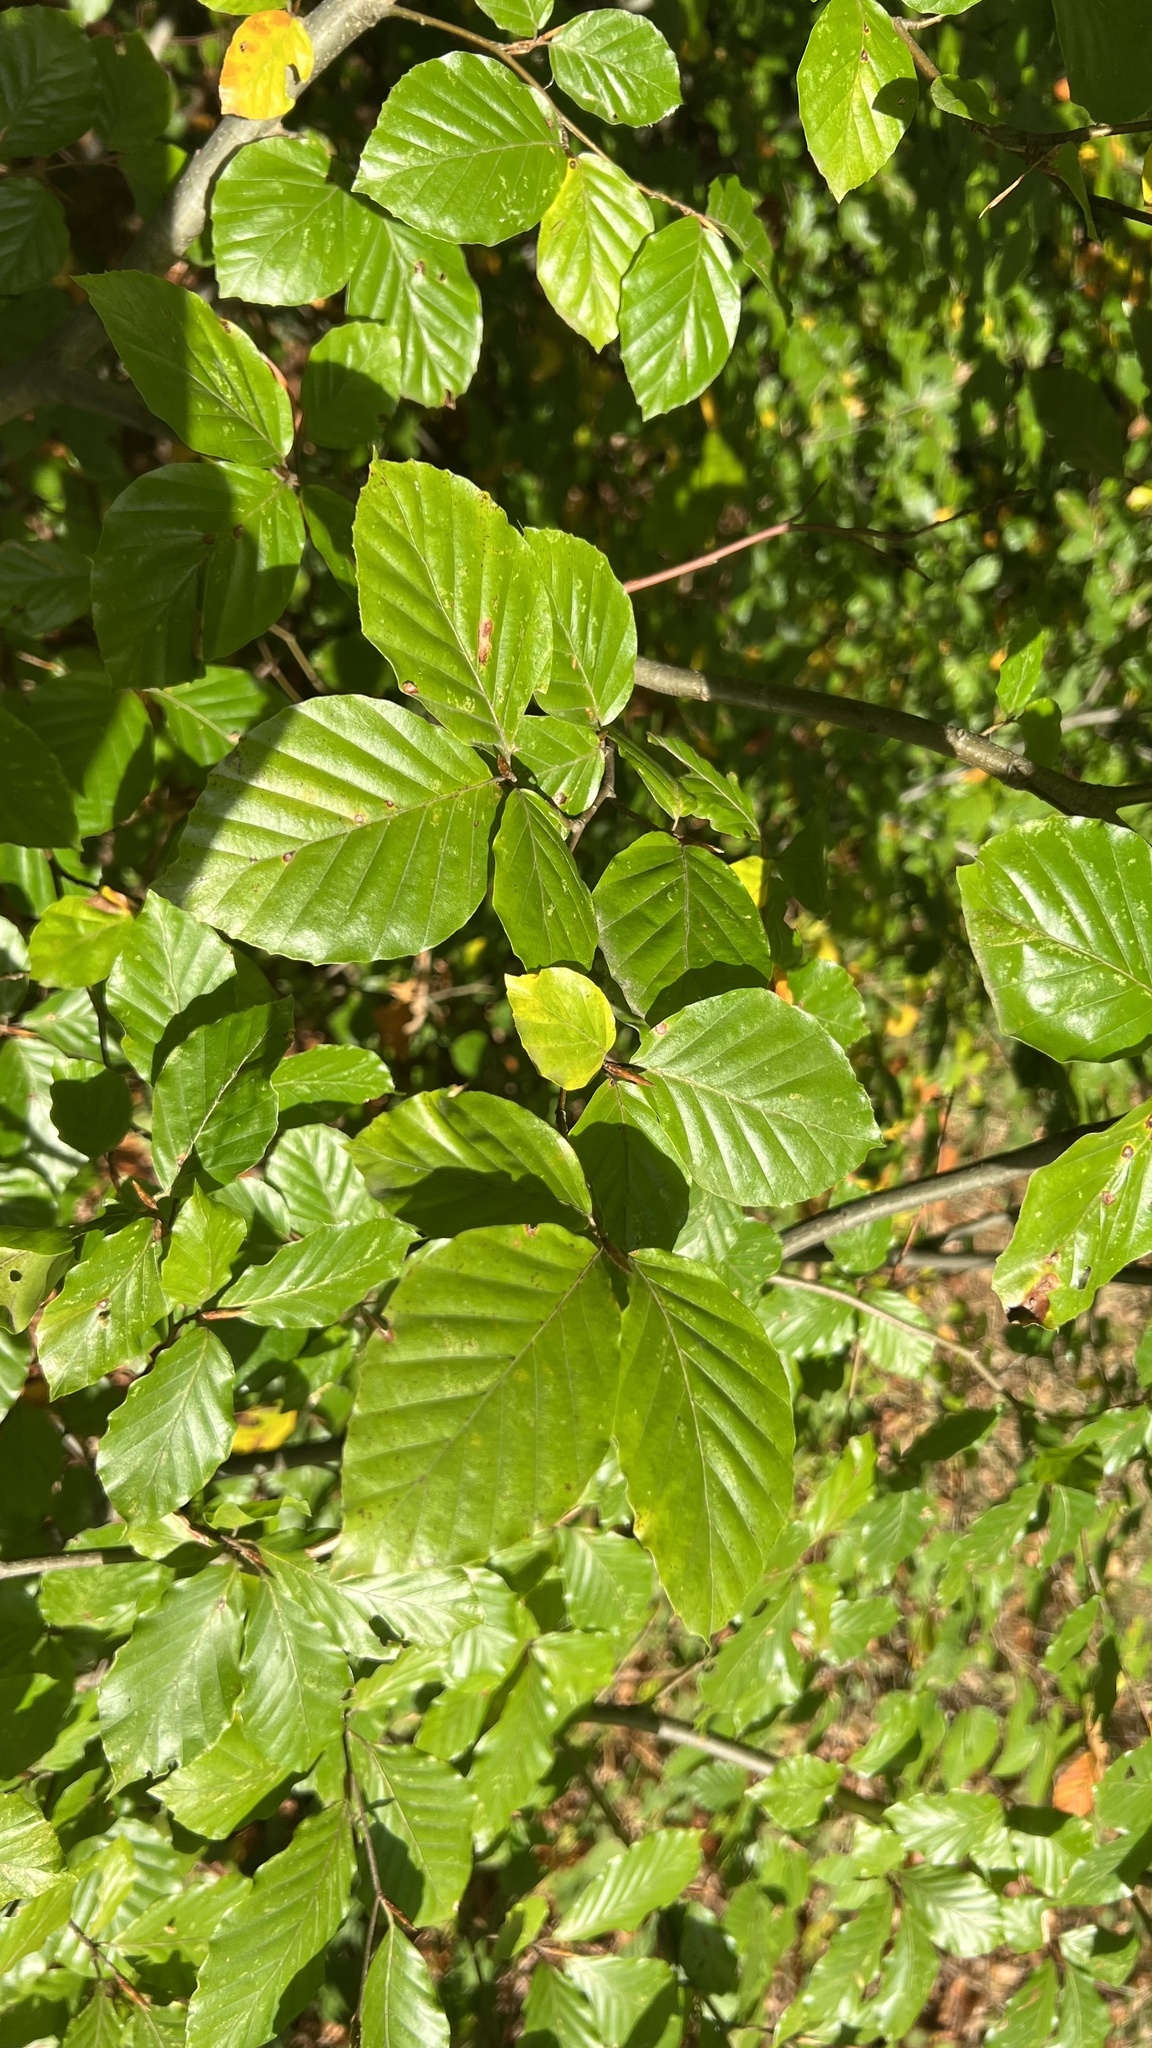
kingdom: Plantae
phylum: Tracheophyta
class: Magnoliopsida
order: Fagales
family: Fagaceae
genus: Fagus
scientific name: Fagus sylvatica
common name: Beech
